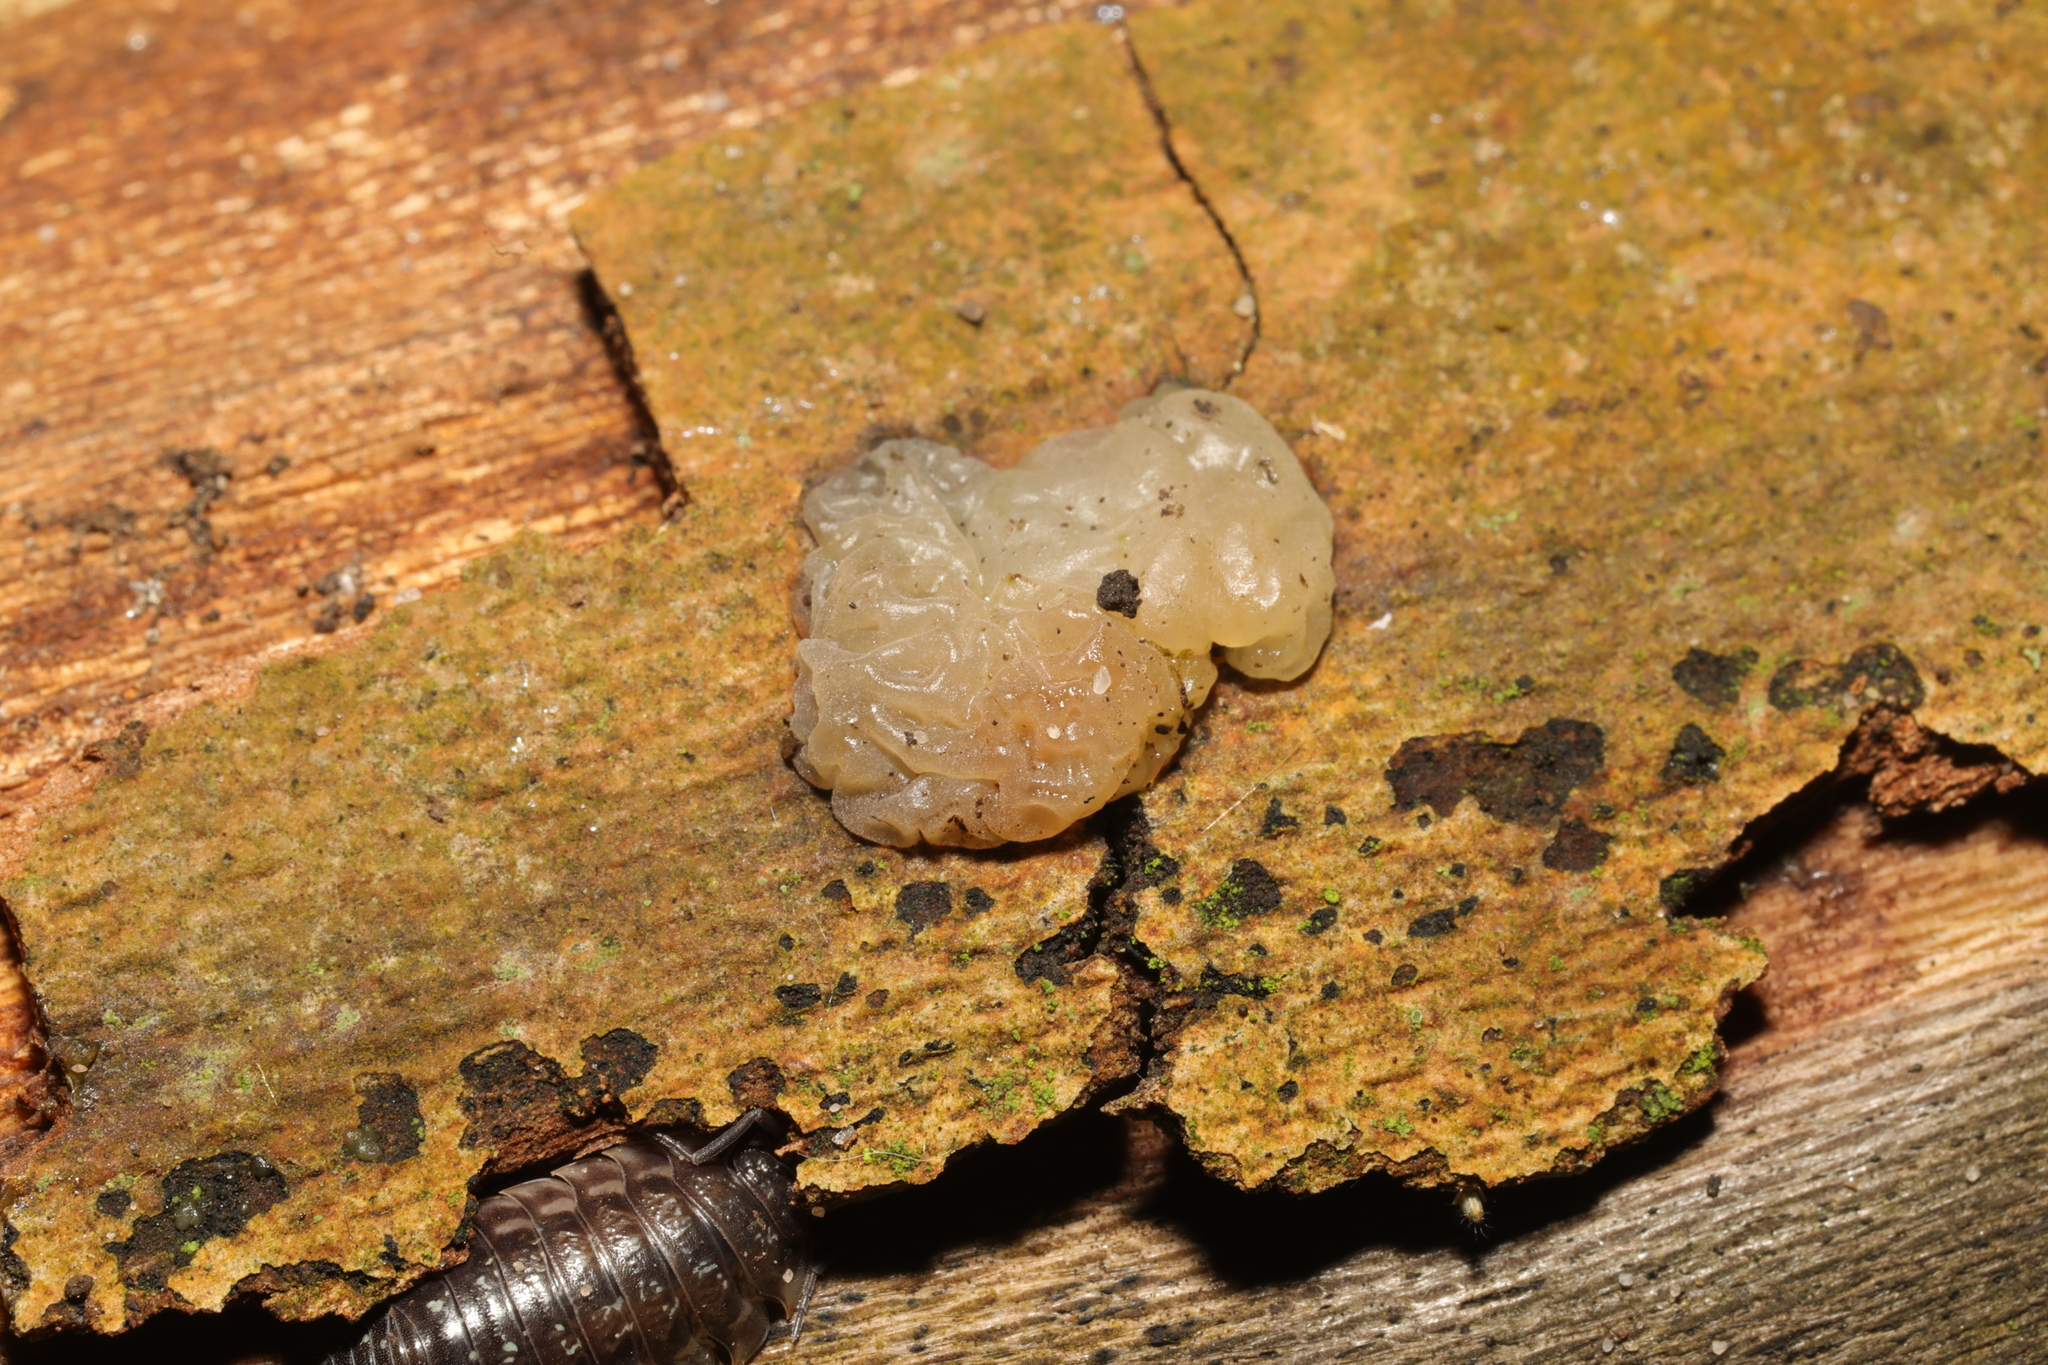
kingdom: Fungi
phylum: Basidiomycota
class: Agaricomycetes
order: Auriculariales
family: Hyaloriaceae
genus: Myxarium
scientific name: Myxarium nucleatum
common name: Crystal brain fungus
